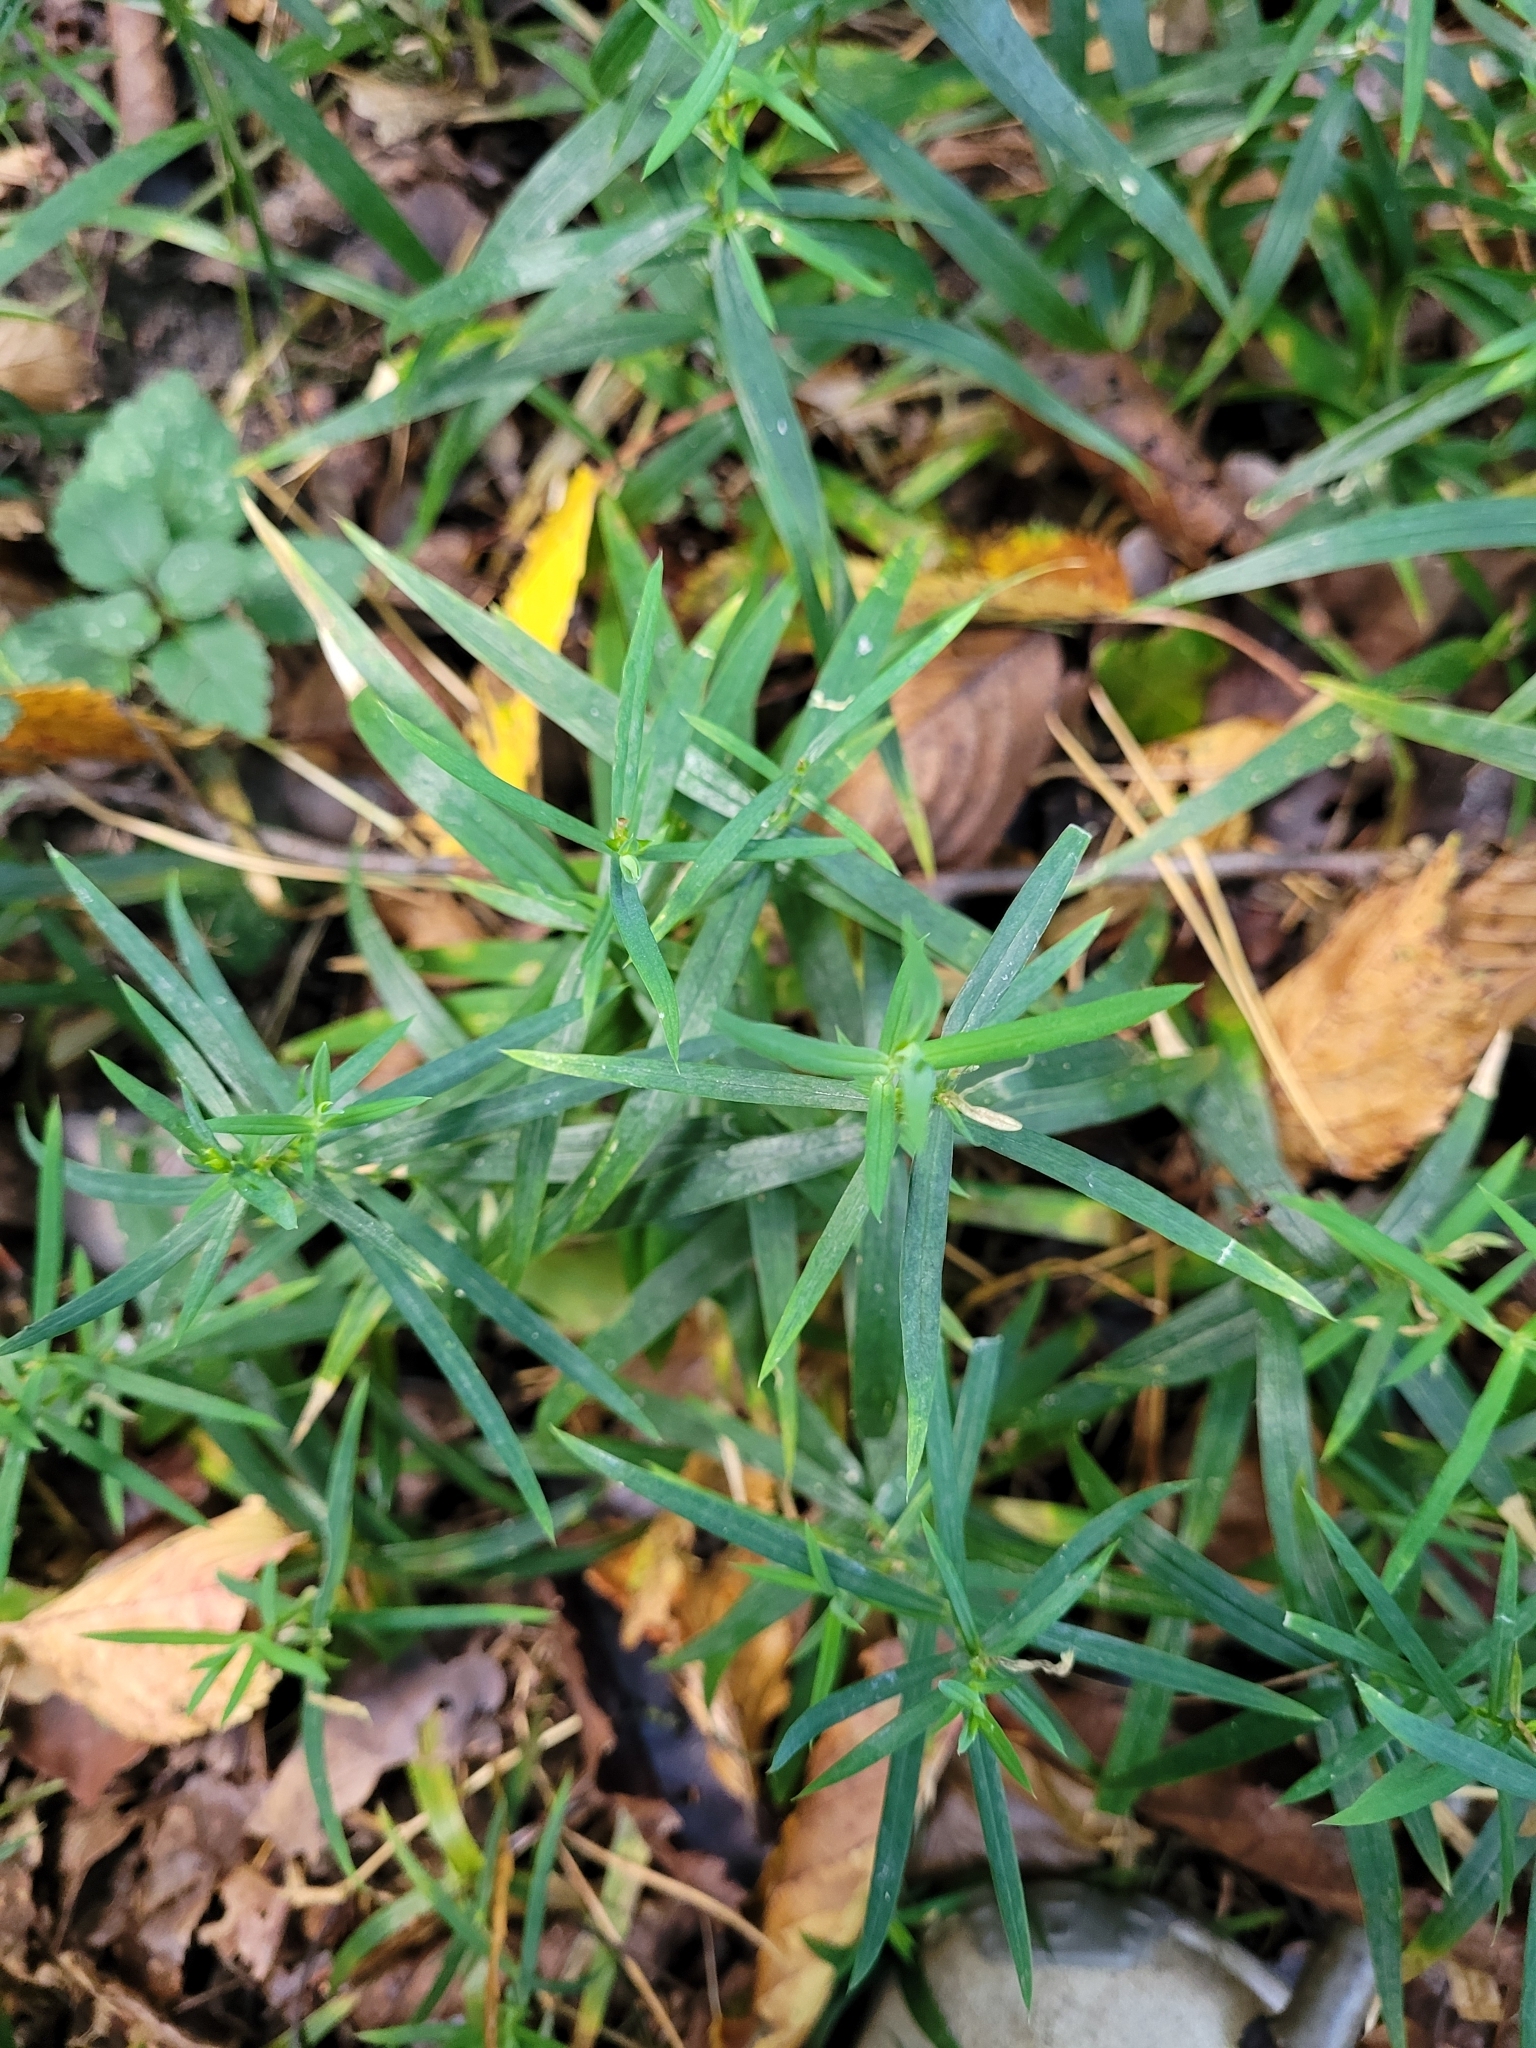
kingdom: Plantae
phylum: Tracheophyta
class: Magnoliopsida
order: Caryophyllales
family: Caryophyllaceae
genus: Rabelera
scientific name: Rabelera holostea
